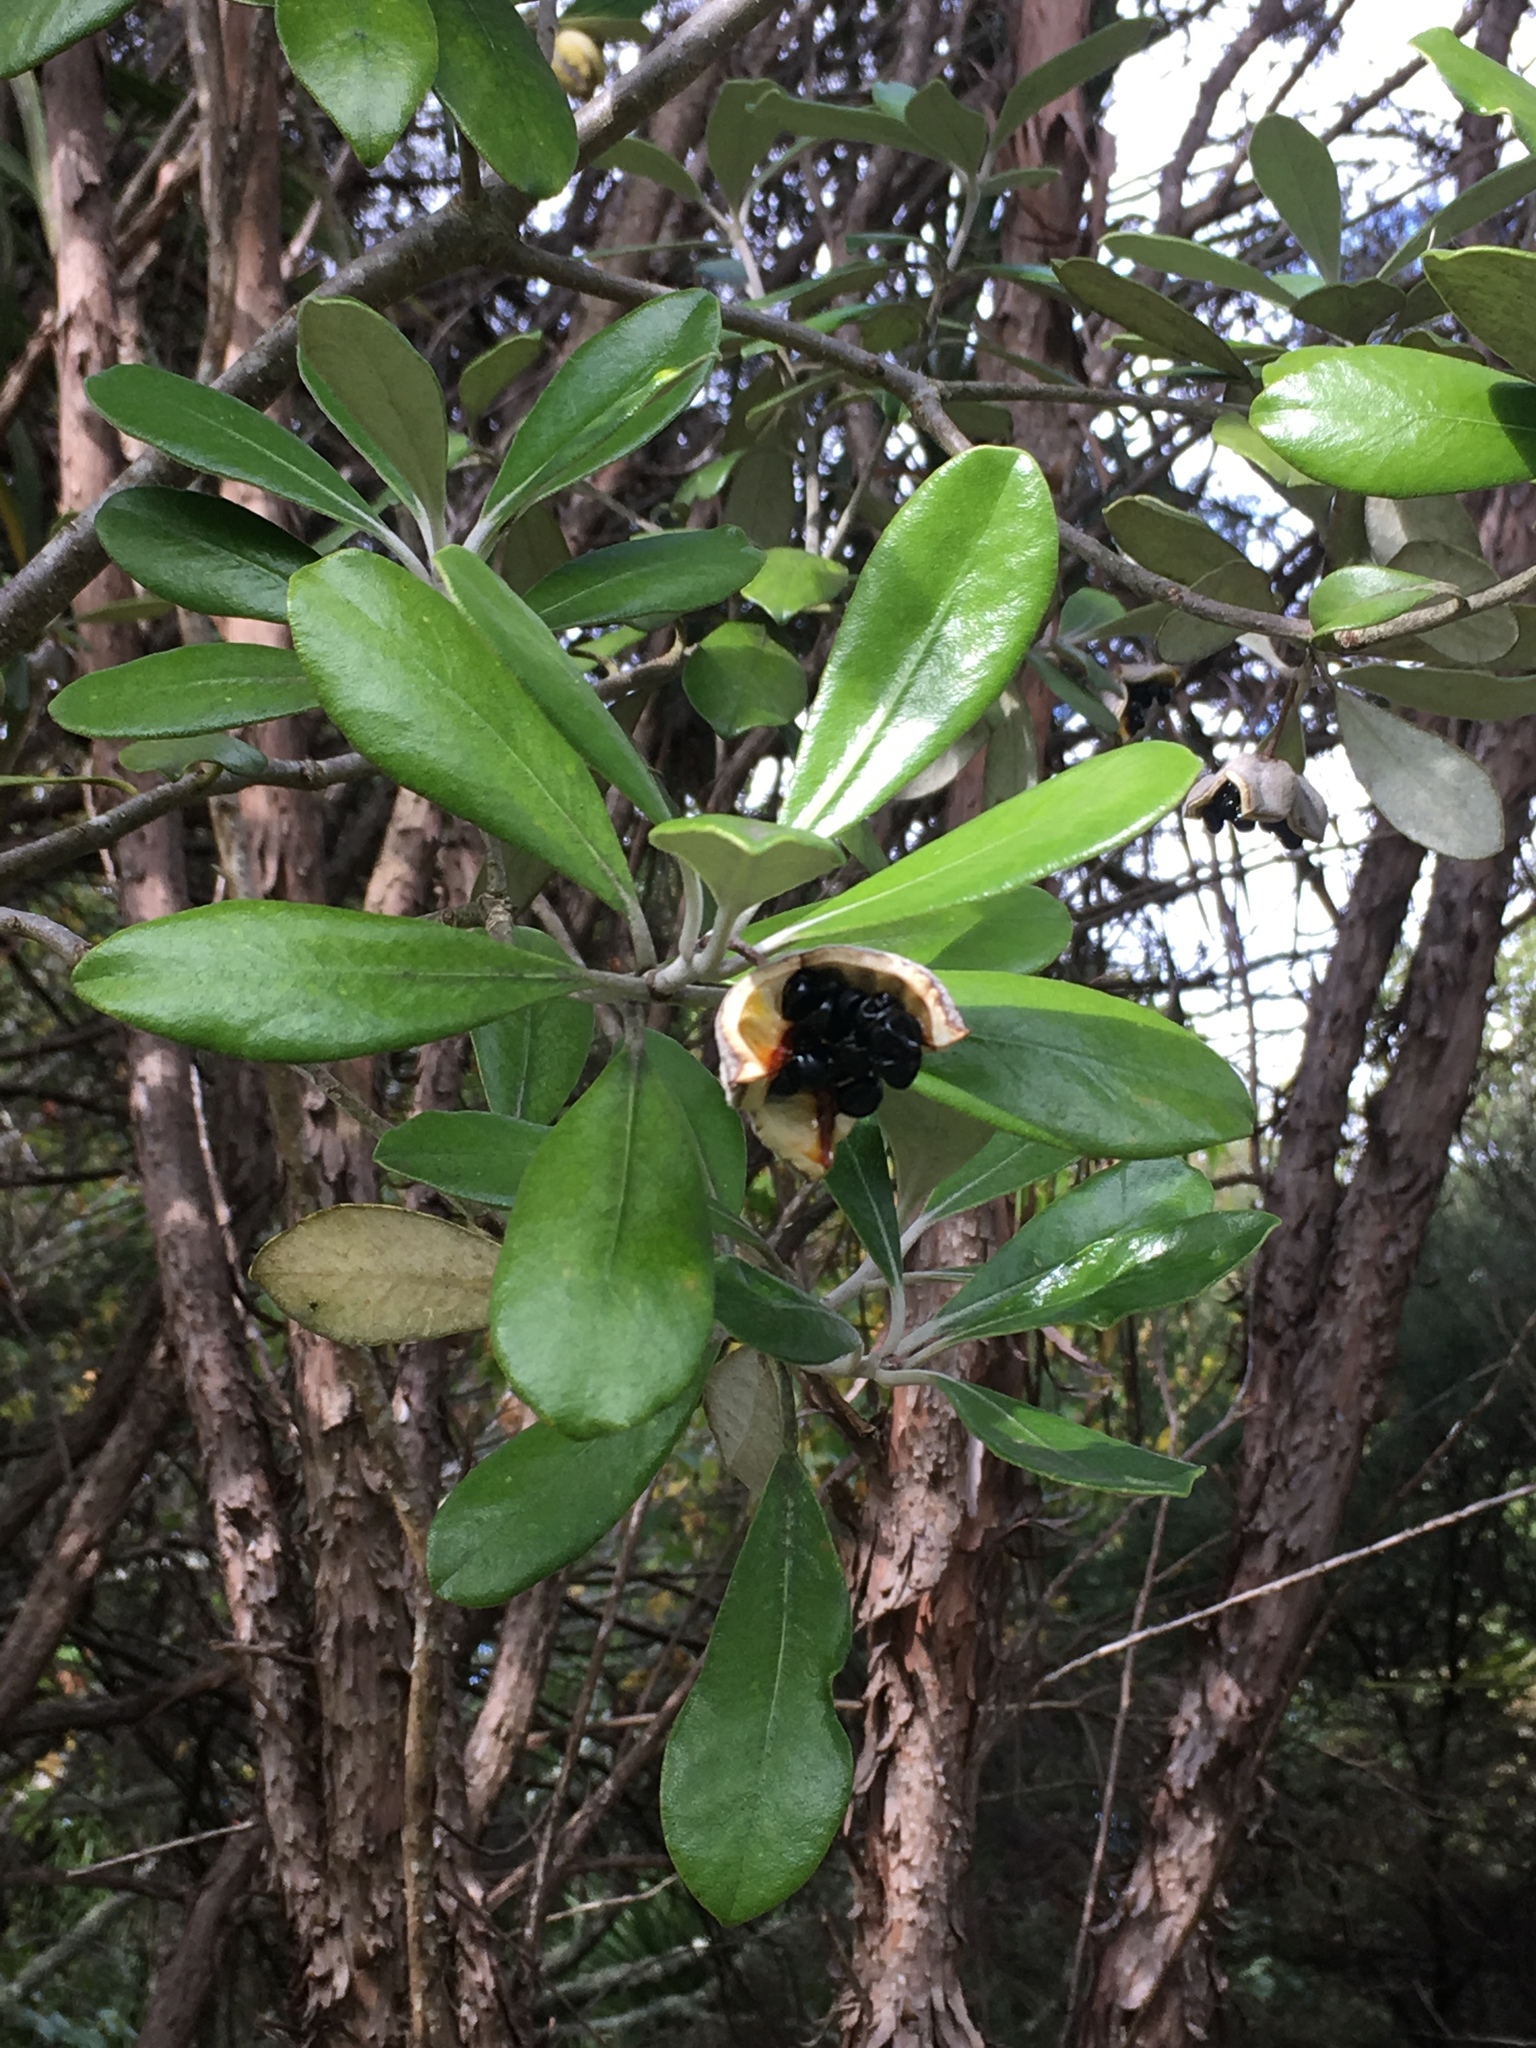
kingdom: Plantae
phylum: Tracheophyta
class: Magnoliopsida
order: Apiales
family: Pittosporaceae
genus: Pittosporum
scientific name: Pittosporum crassifolium
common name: Karo
